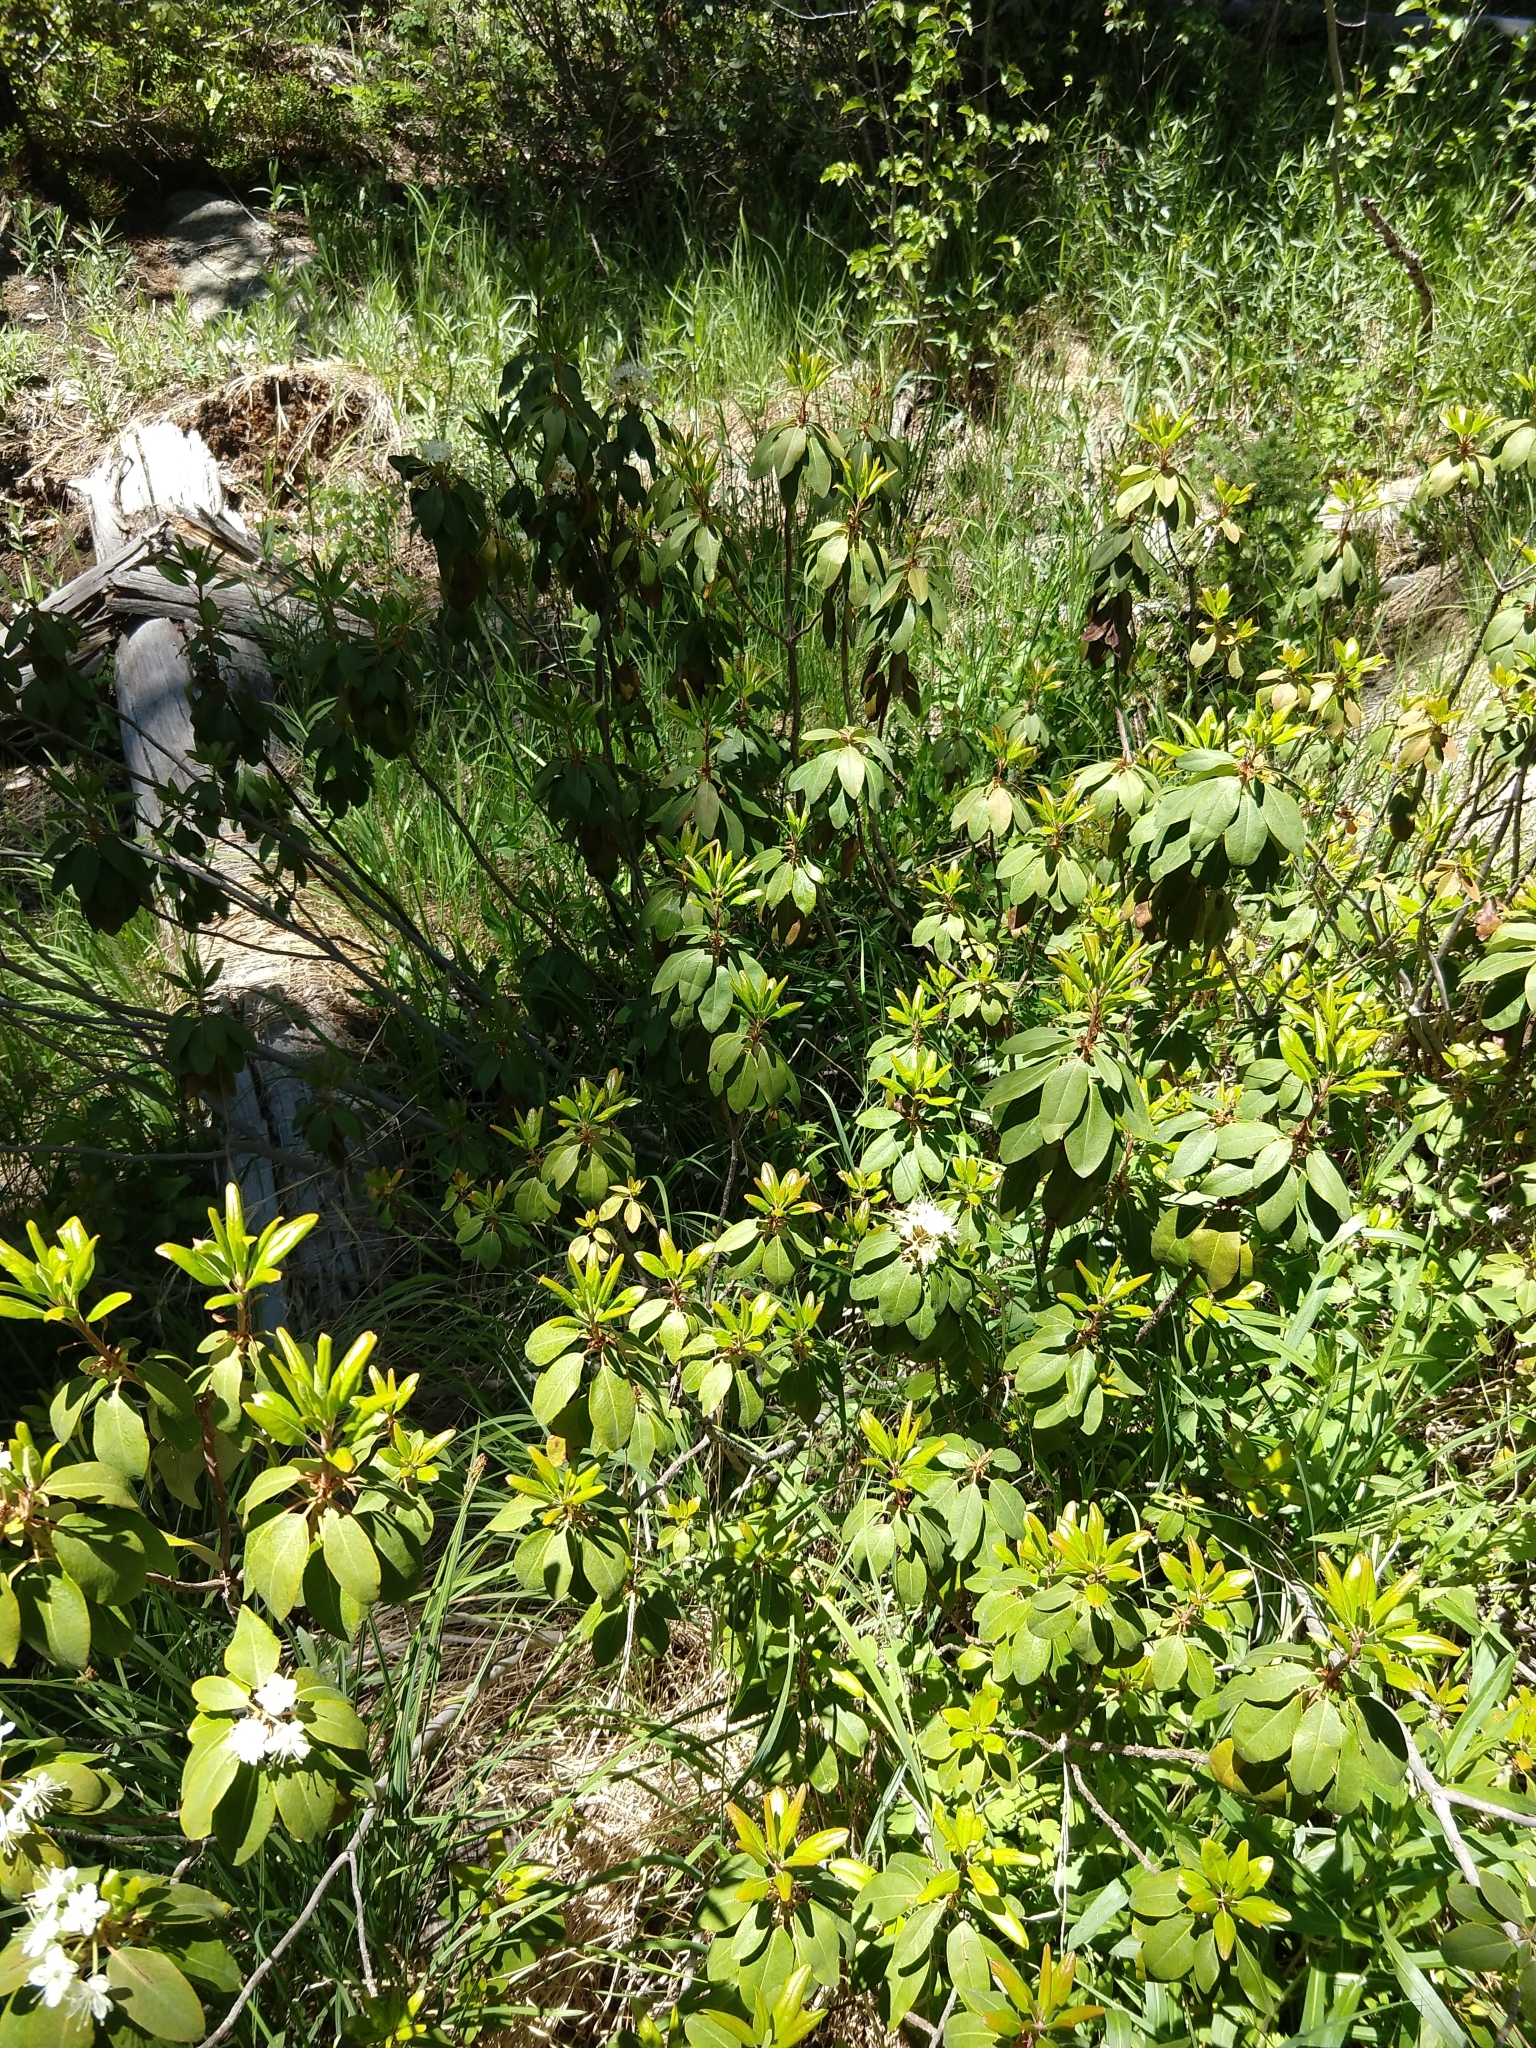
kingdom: Plantae
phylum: Tracheophyta
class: Magnoliopsida
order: Ericales
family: Ericaceae
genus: Rhododendron
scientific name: Rhododendron columbianum
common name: Western labrador tea
